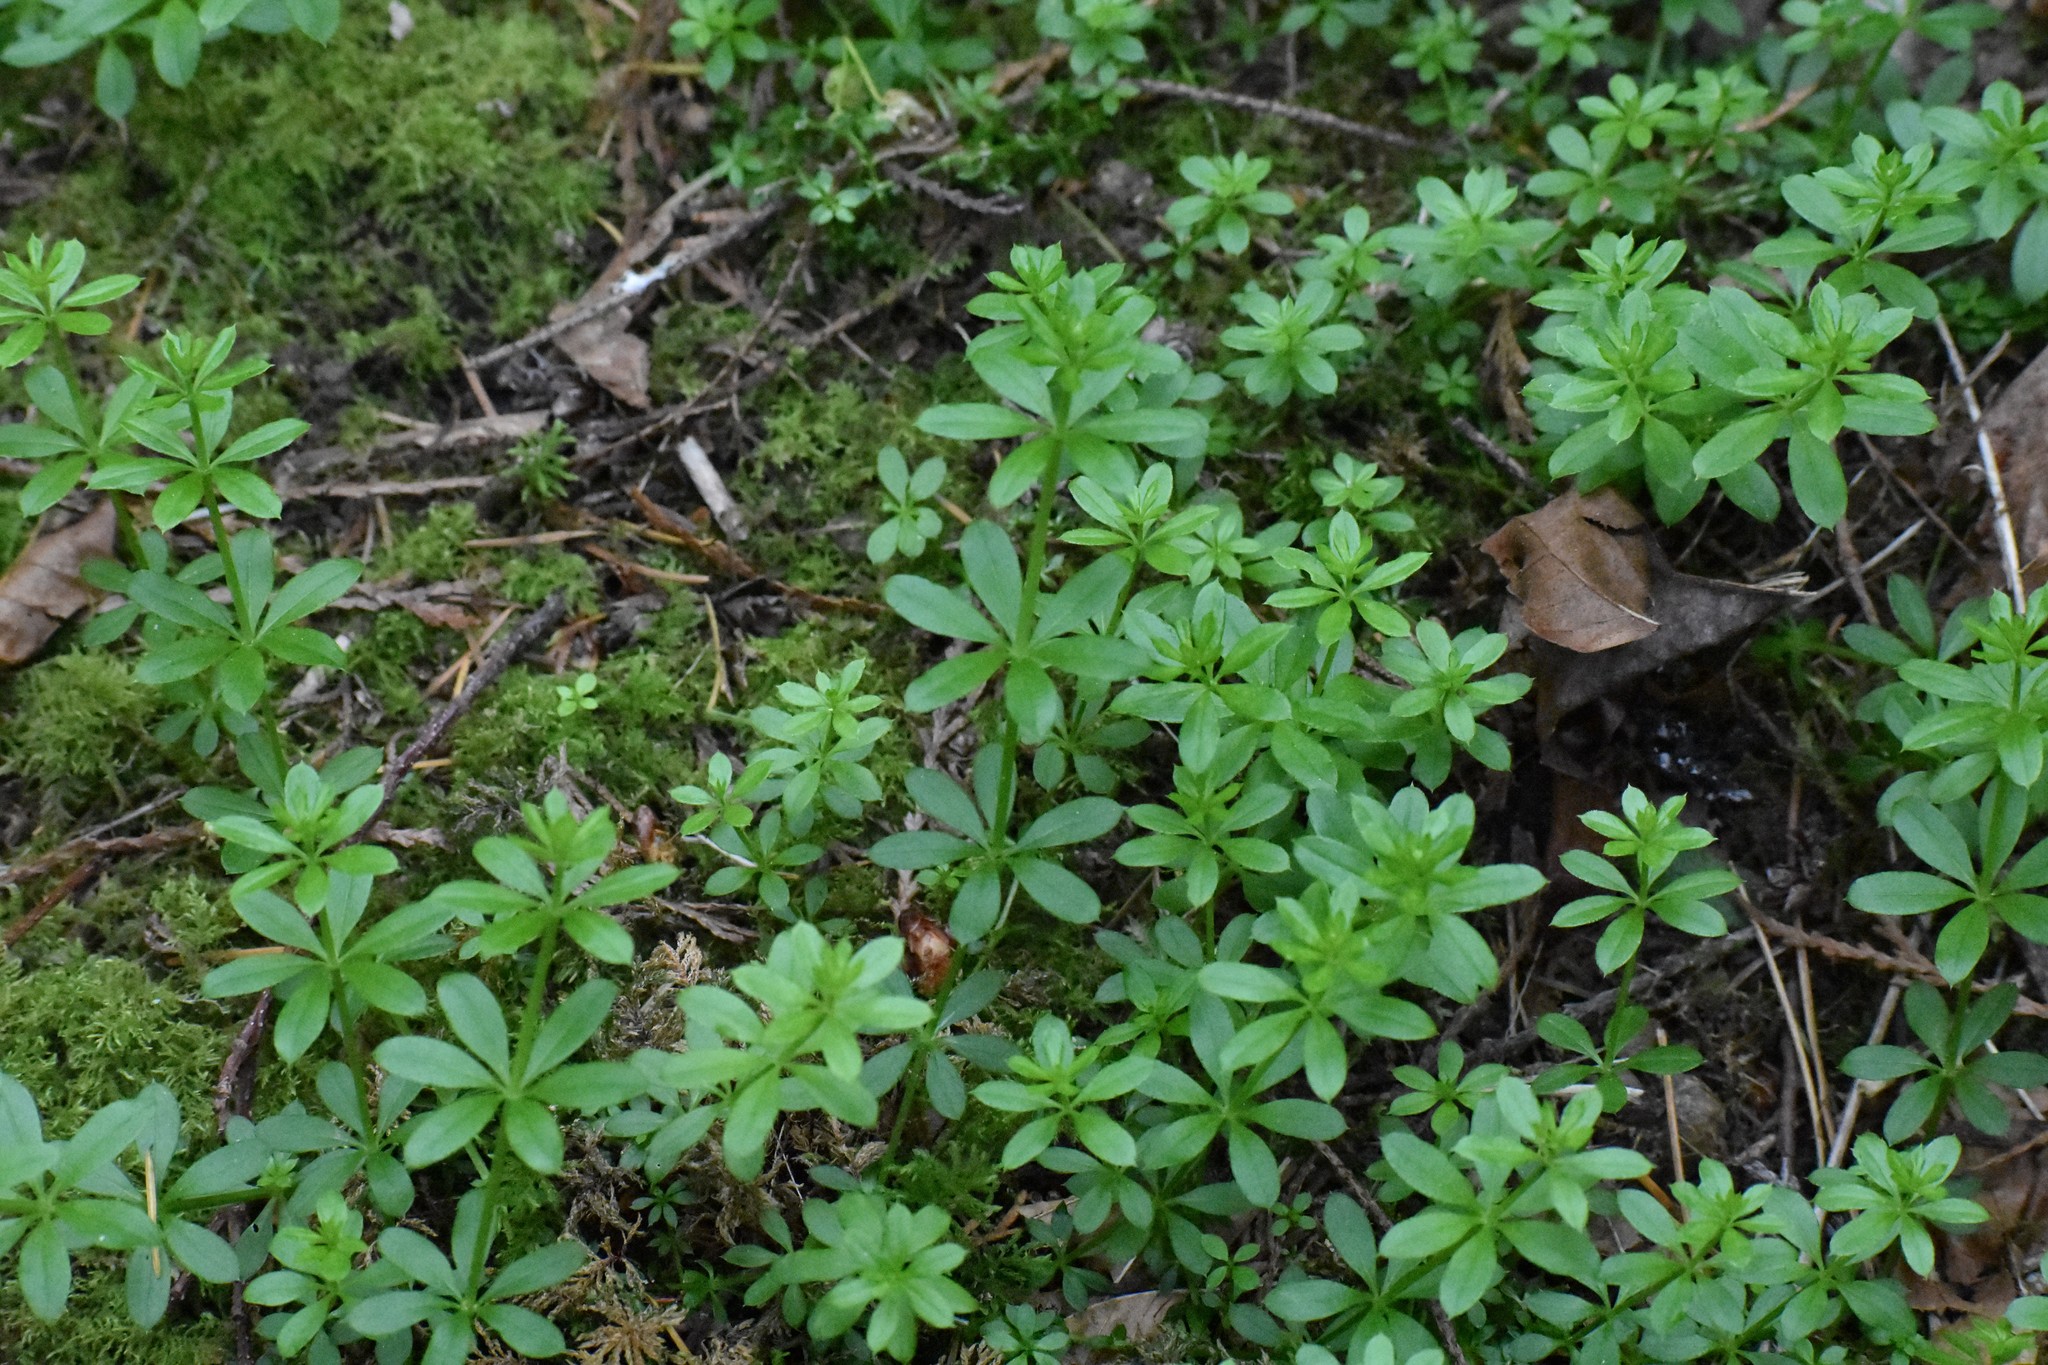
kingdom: Plantae
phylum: Tracheophyta
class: Magnoliopsida
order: Gentianales
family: Rubiaceae
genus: Galium
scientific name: Galium triflorum
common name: Fragrant bedstraw
